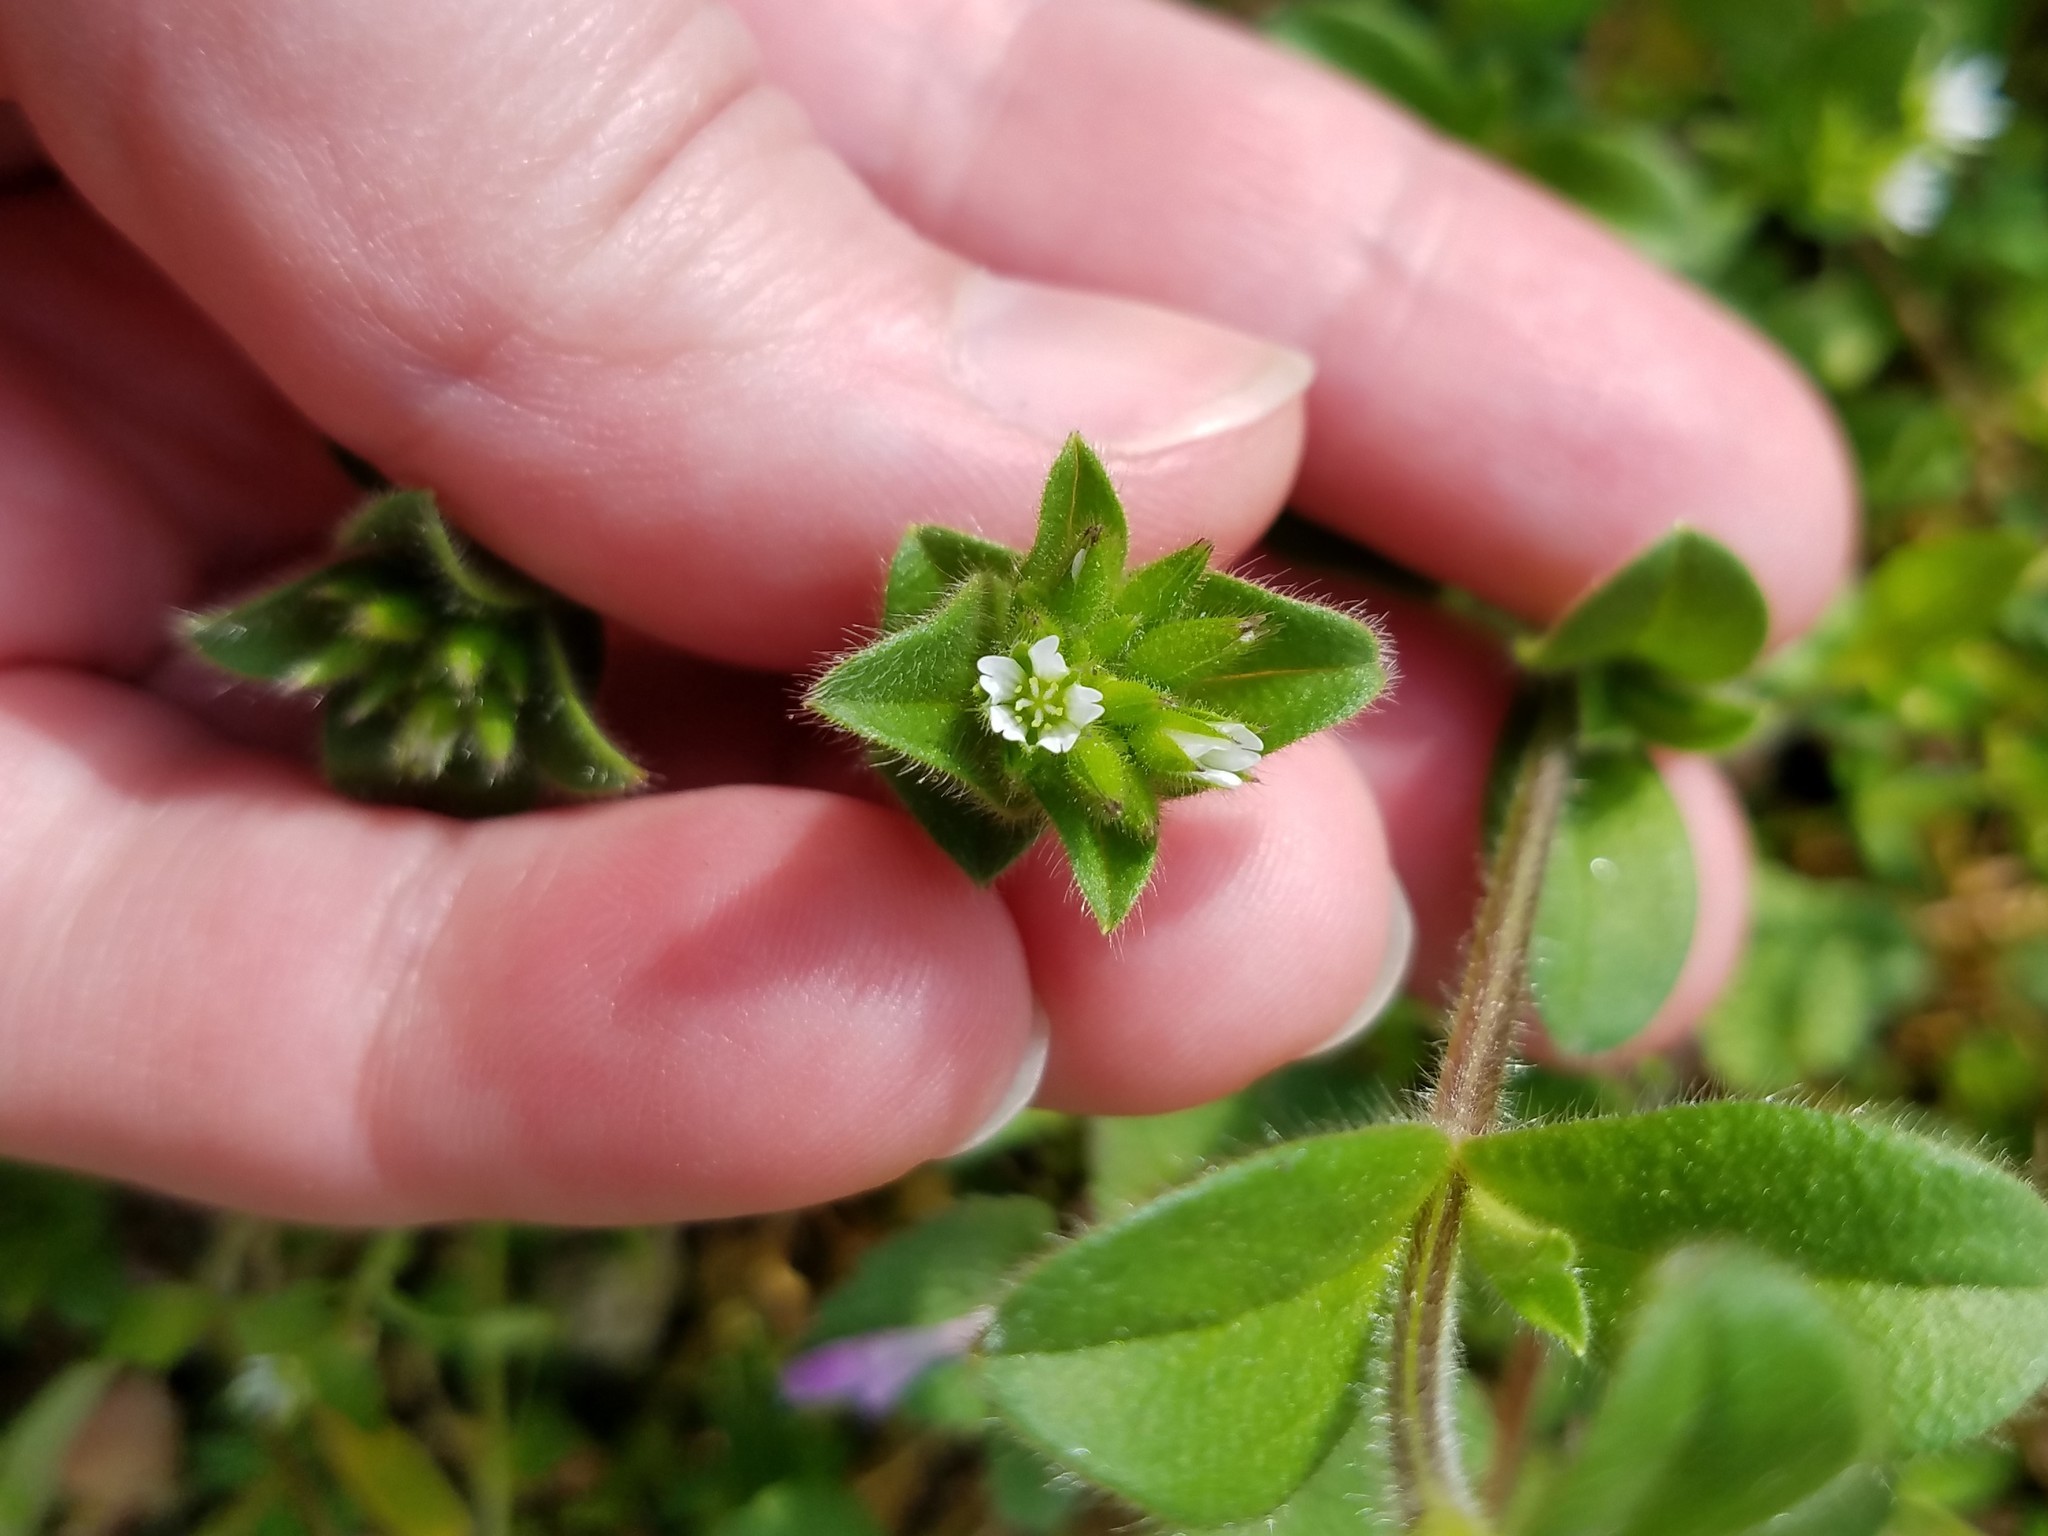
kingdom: Plantae
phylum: Tracheophyta
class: Magnoliopsida
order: Caryophyllales
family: Caryophyllaceae
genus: Cerastium
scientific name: Cerastium glomeratum
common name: Sticky chickweed
